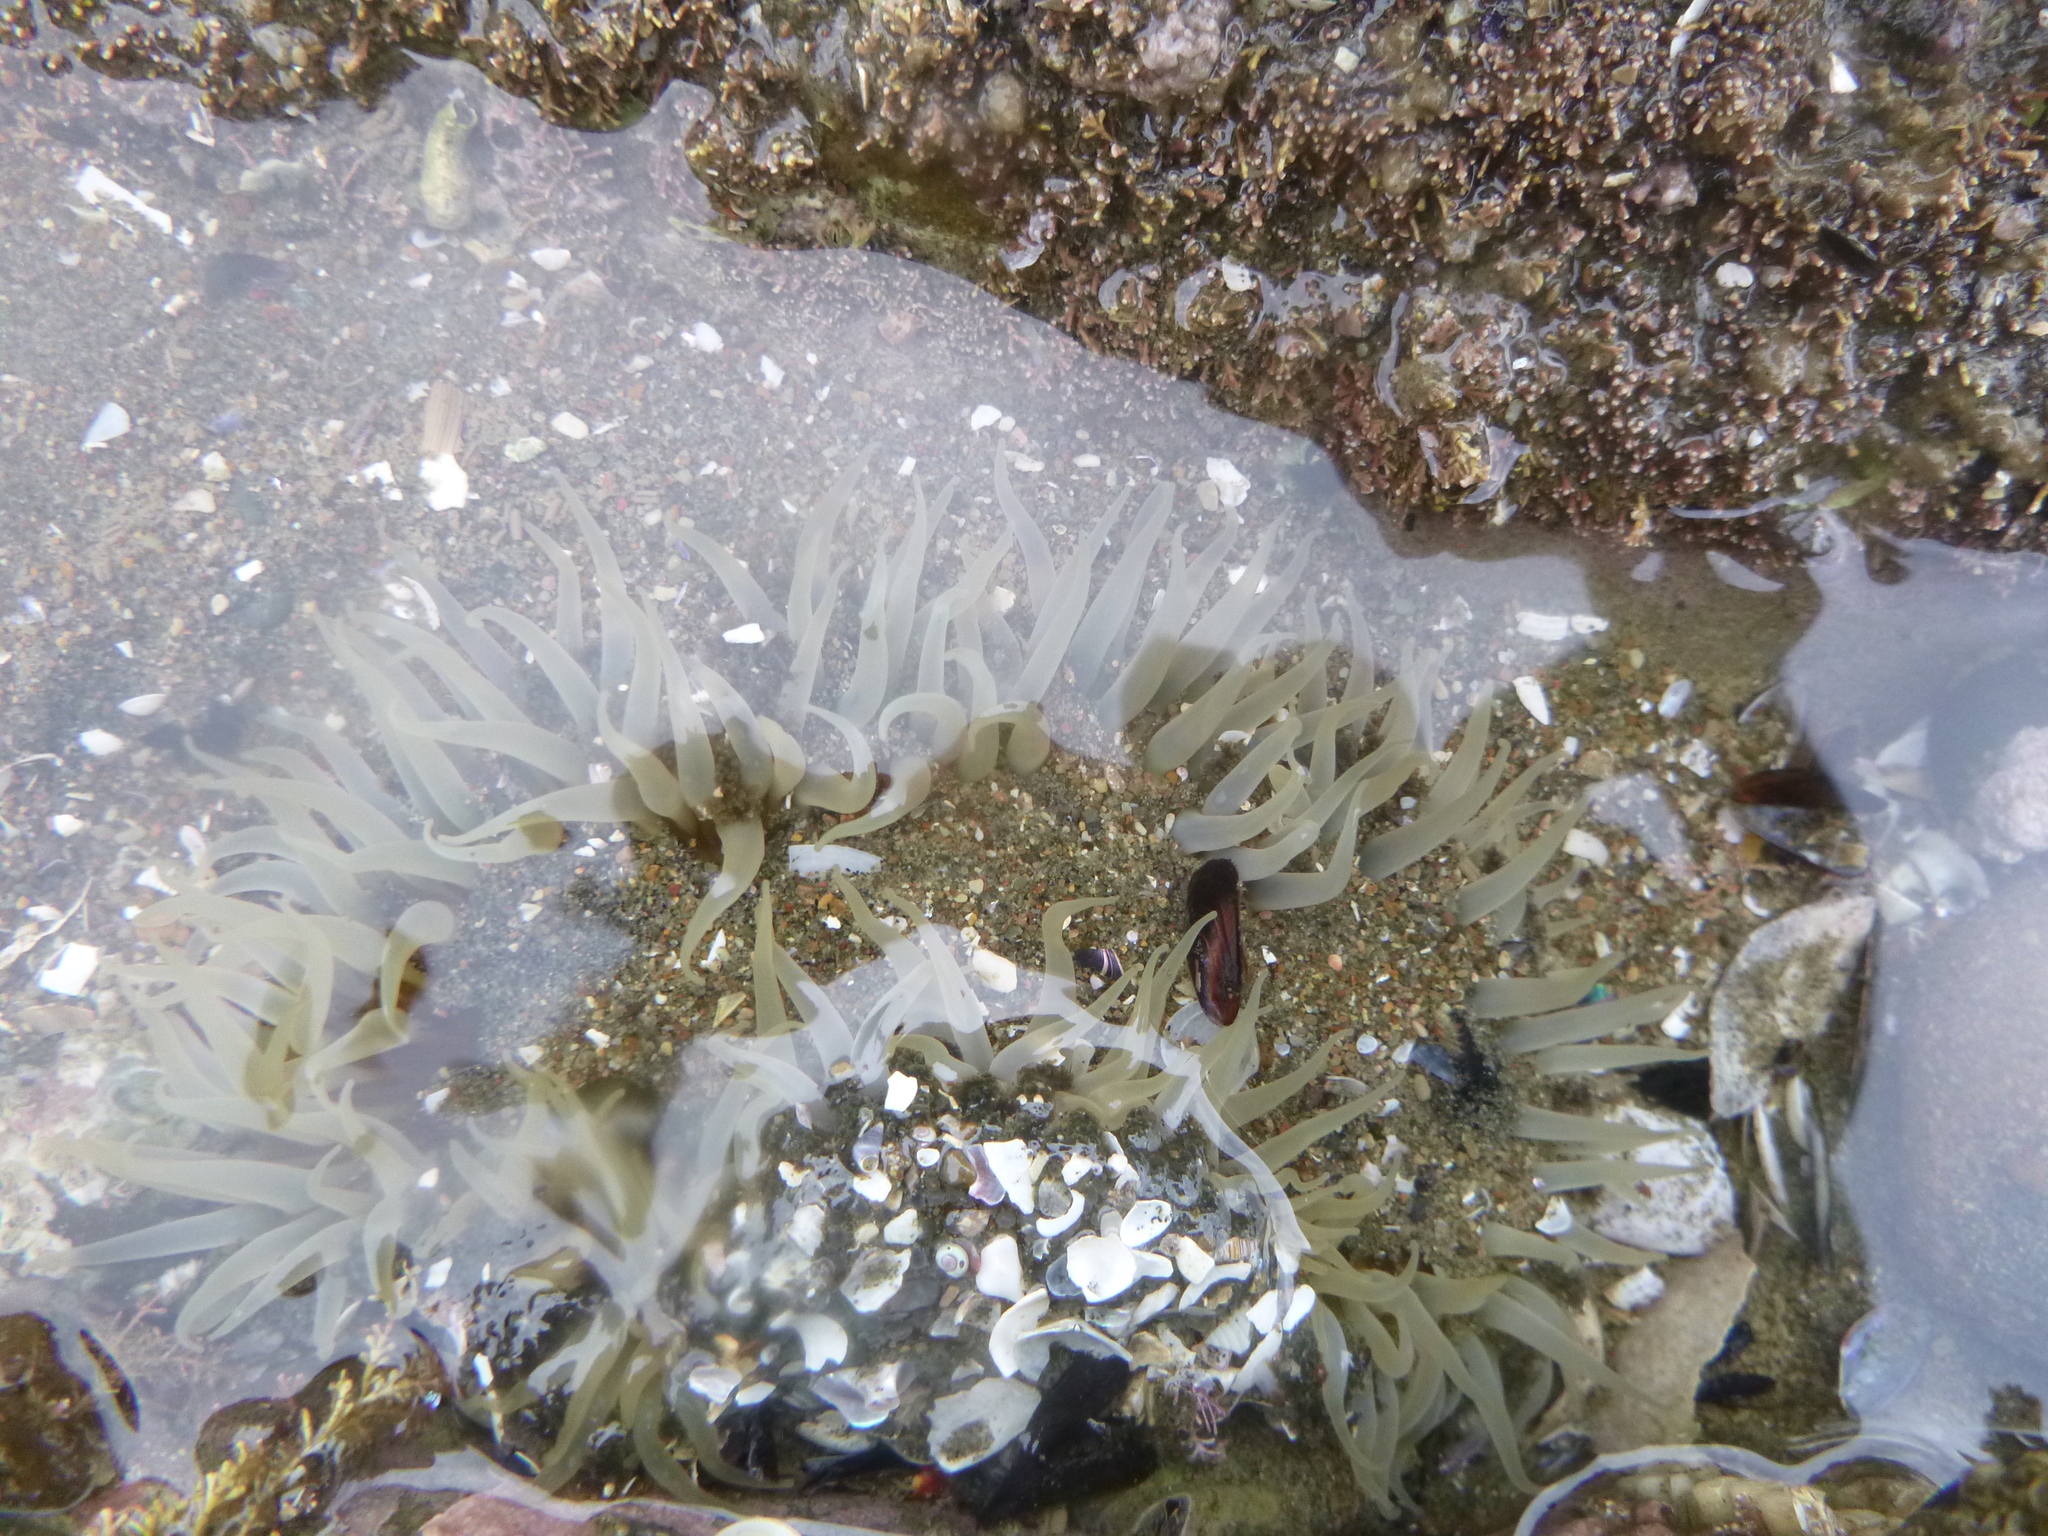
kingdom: Animalia
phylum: Cnidaria
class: Anthozoa
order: Actiniaria
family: Actiniidae
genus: Oulactis
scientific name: Oulactis magna
